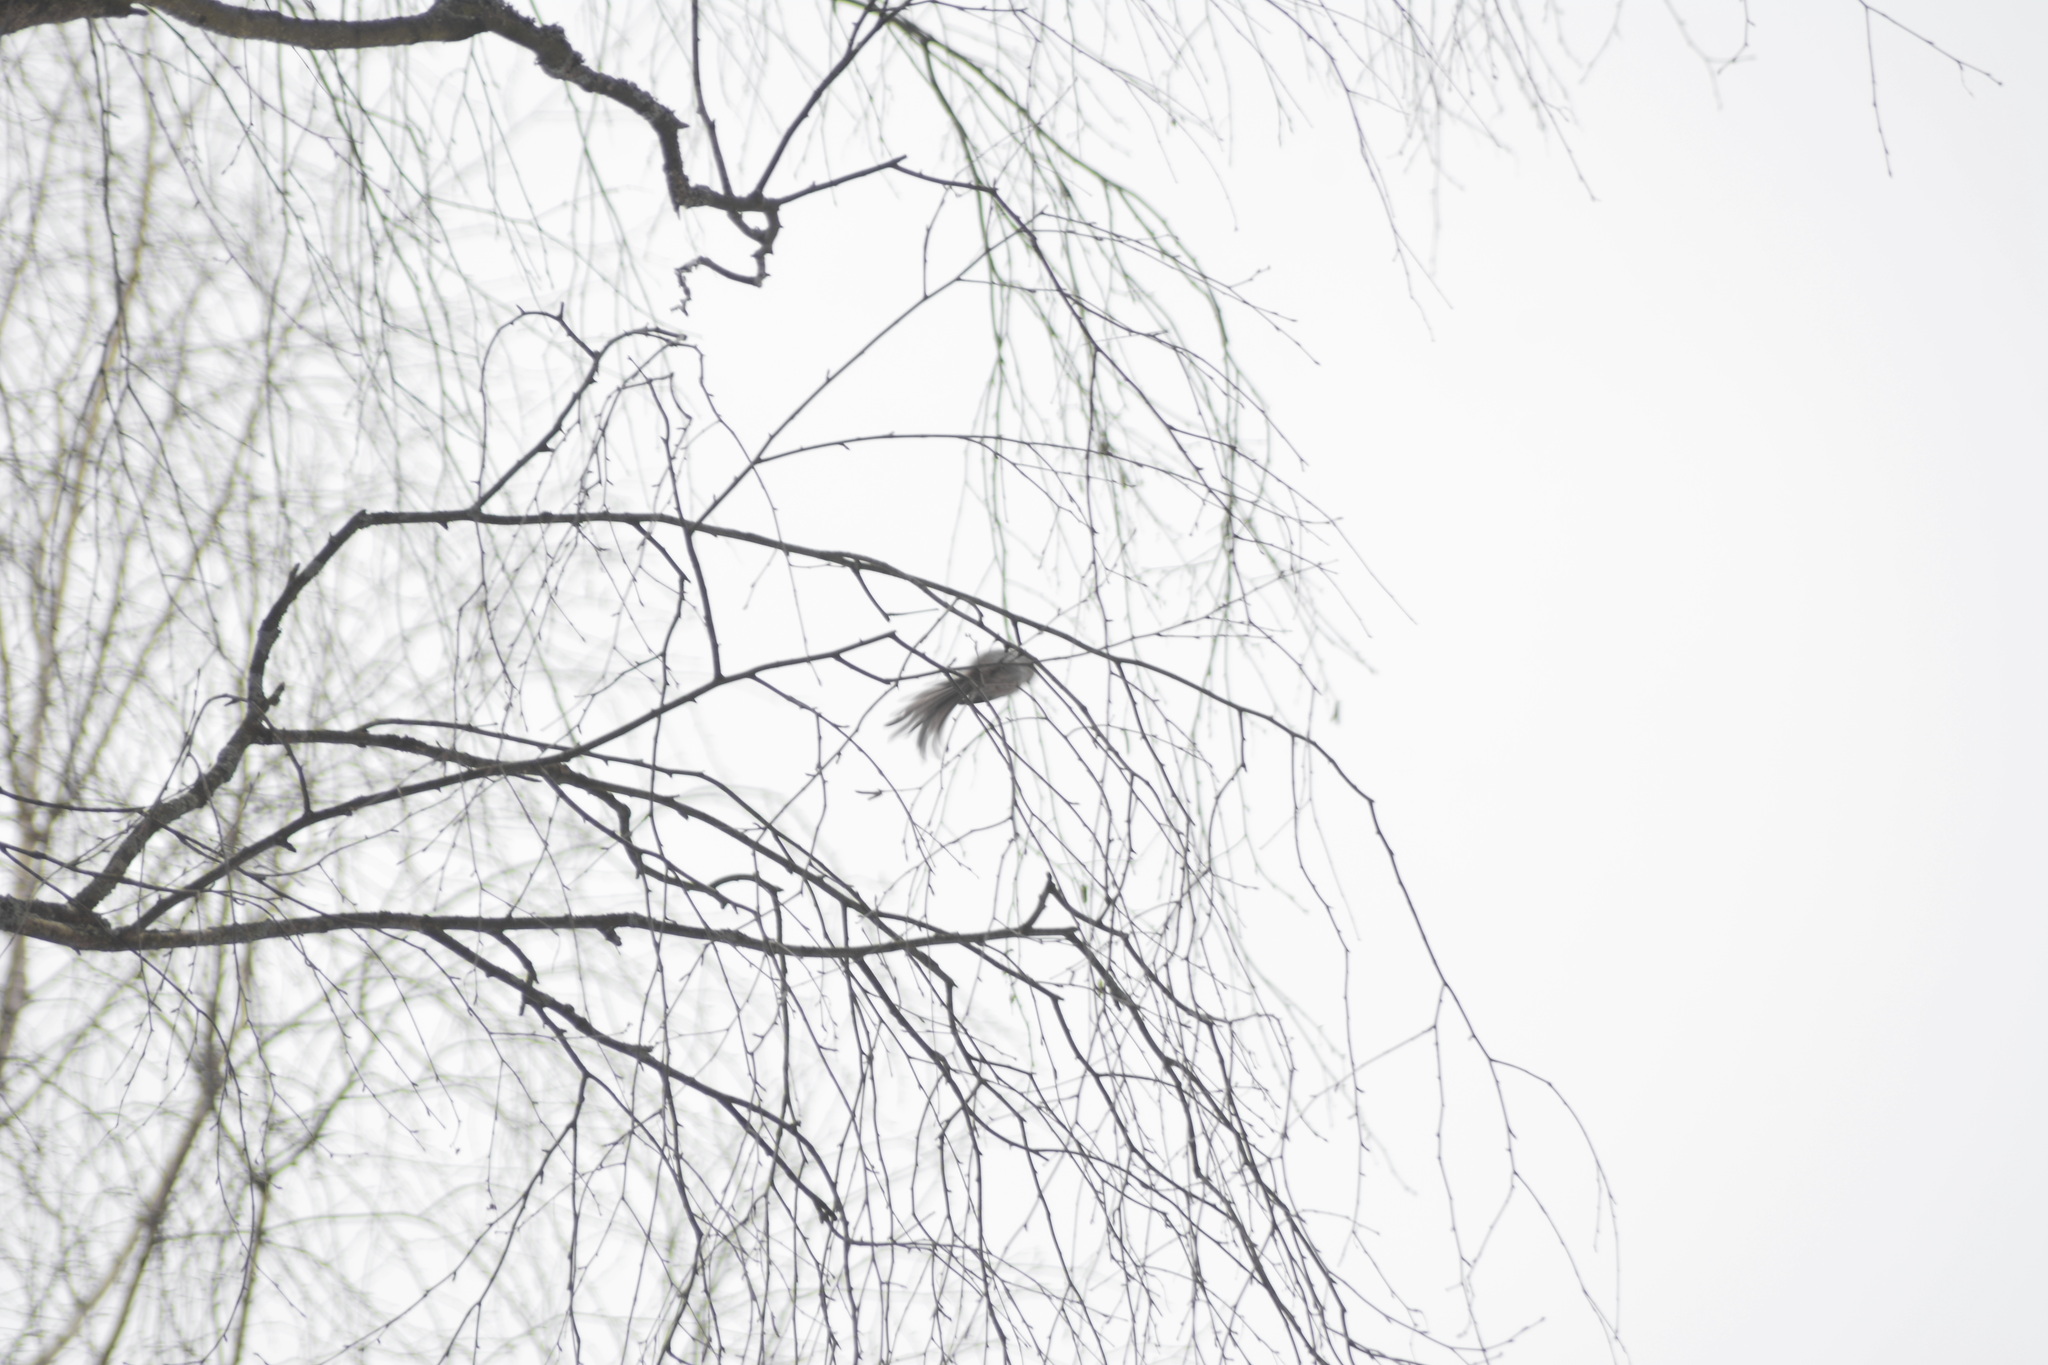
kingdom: Animalia
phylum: Chordata
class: Aves
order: Passeriformes
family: Aegithalidae
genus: Aegithalos
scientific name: Aegithalos caudatus
